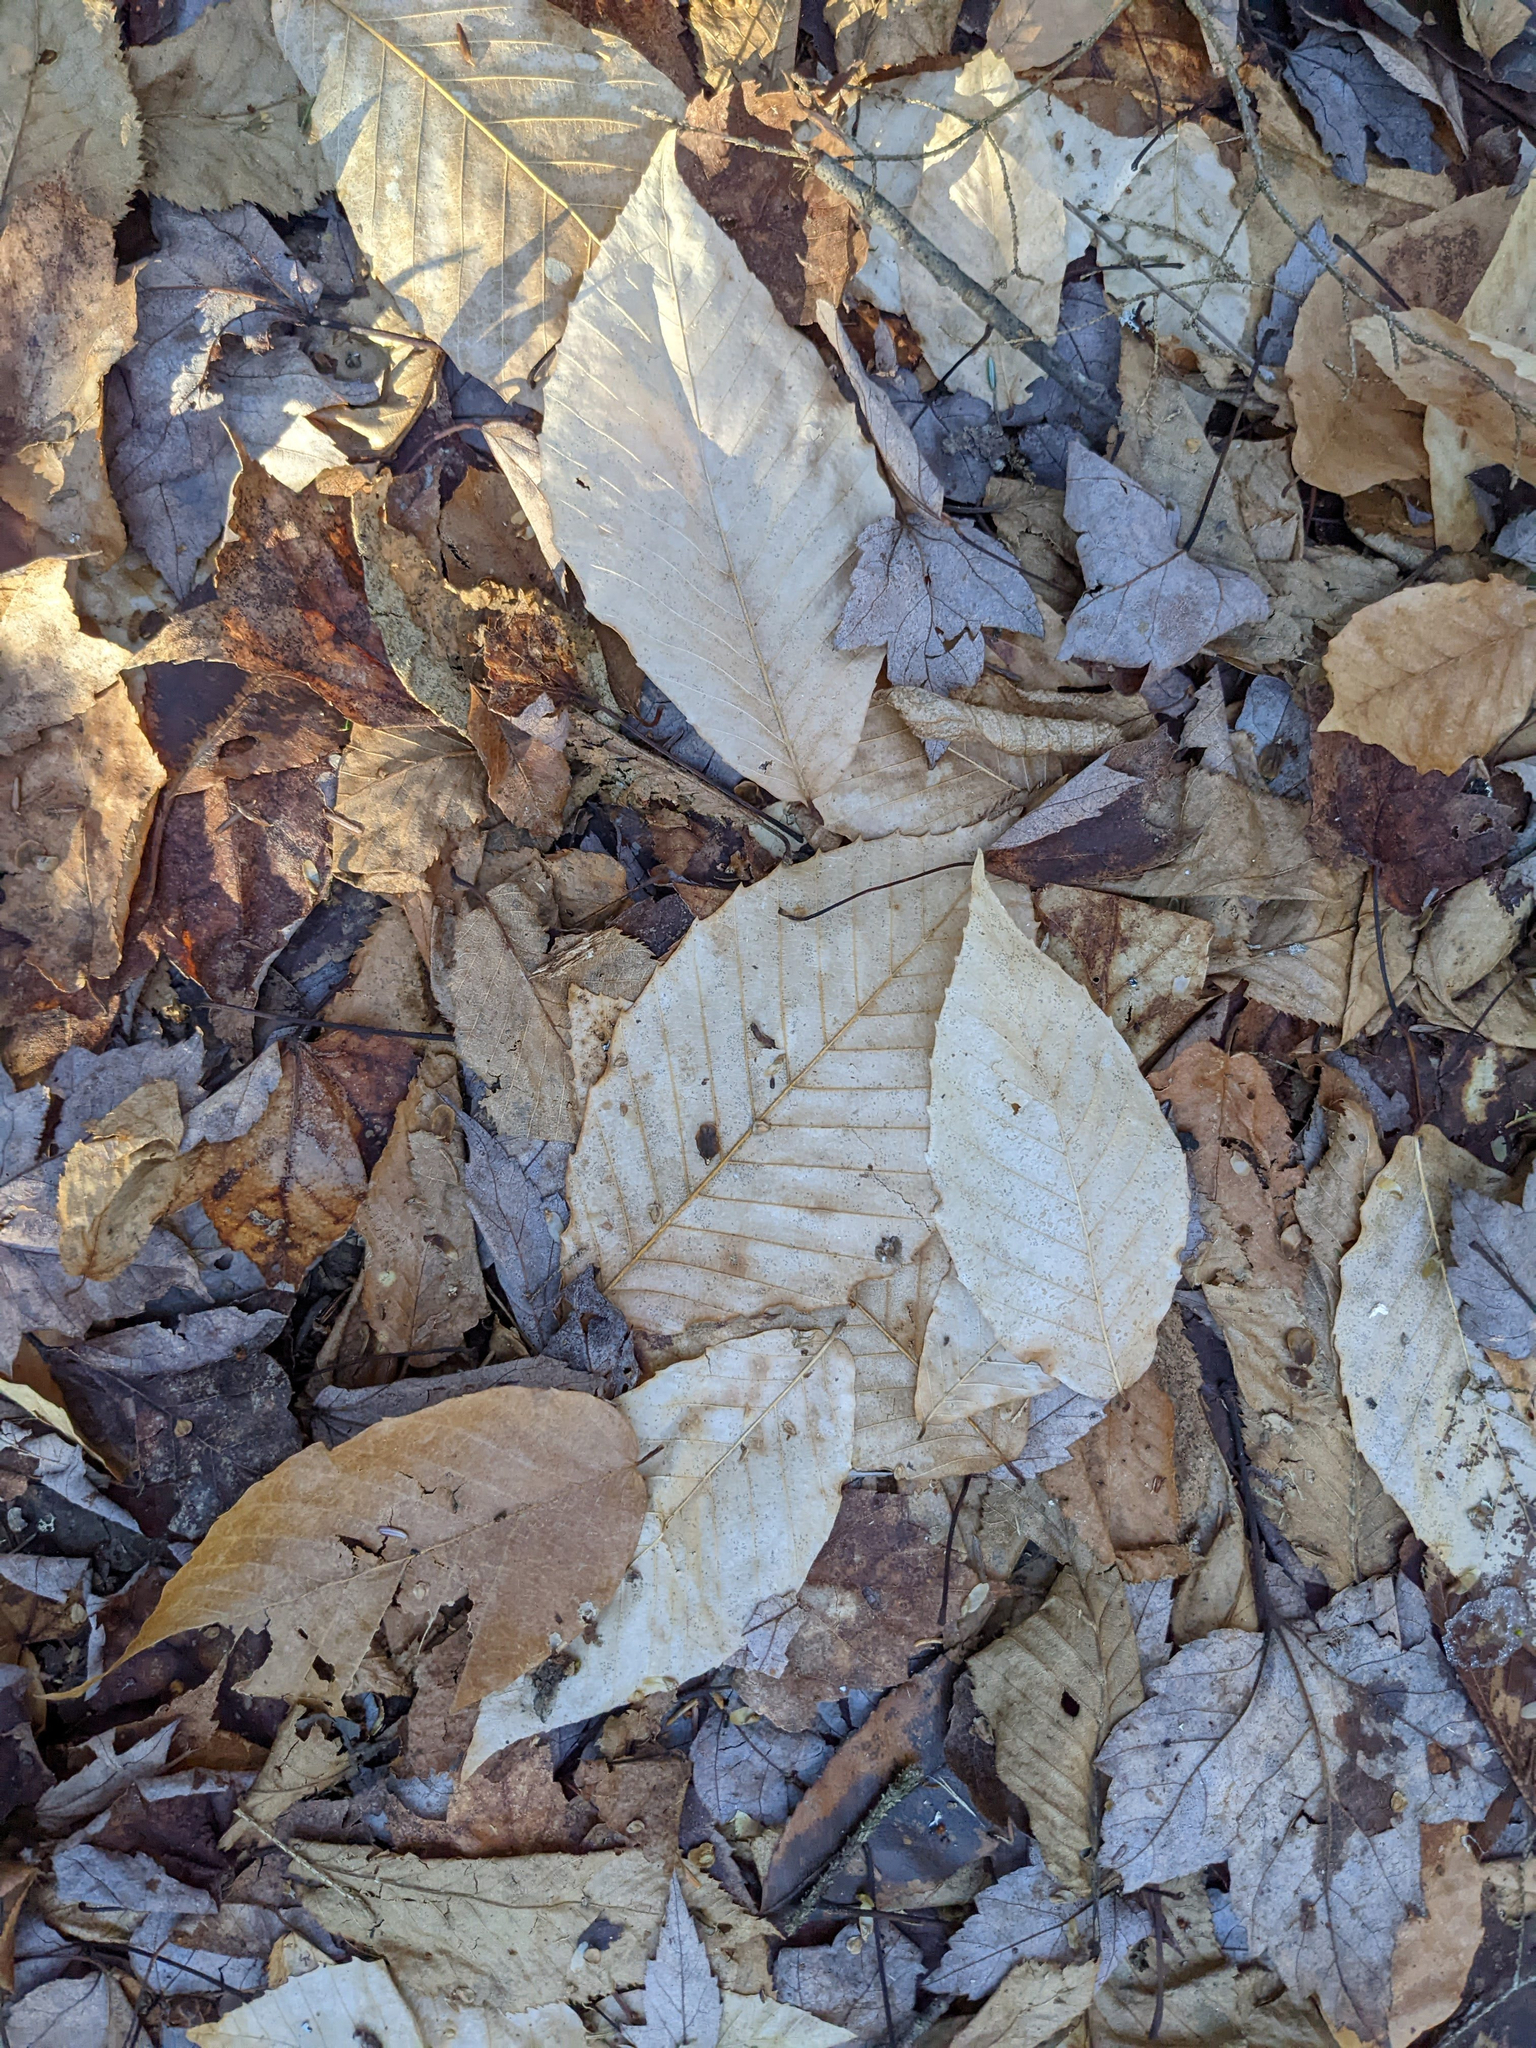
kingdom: Plantae
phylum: Tracheophyta
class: Magnoliopsida
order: Fagales
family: Fagaceae
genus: Fagus
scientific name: Fagus grandifolia
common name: American beech
